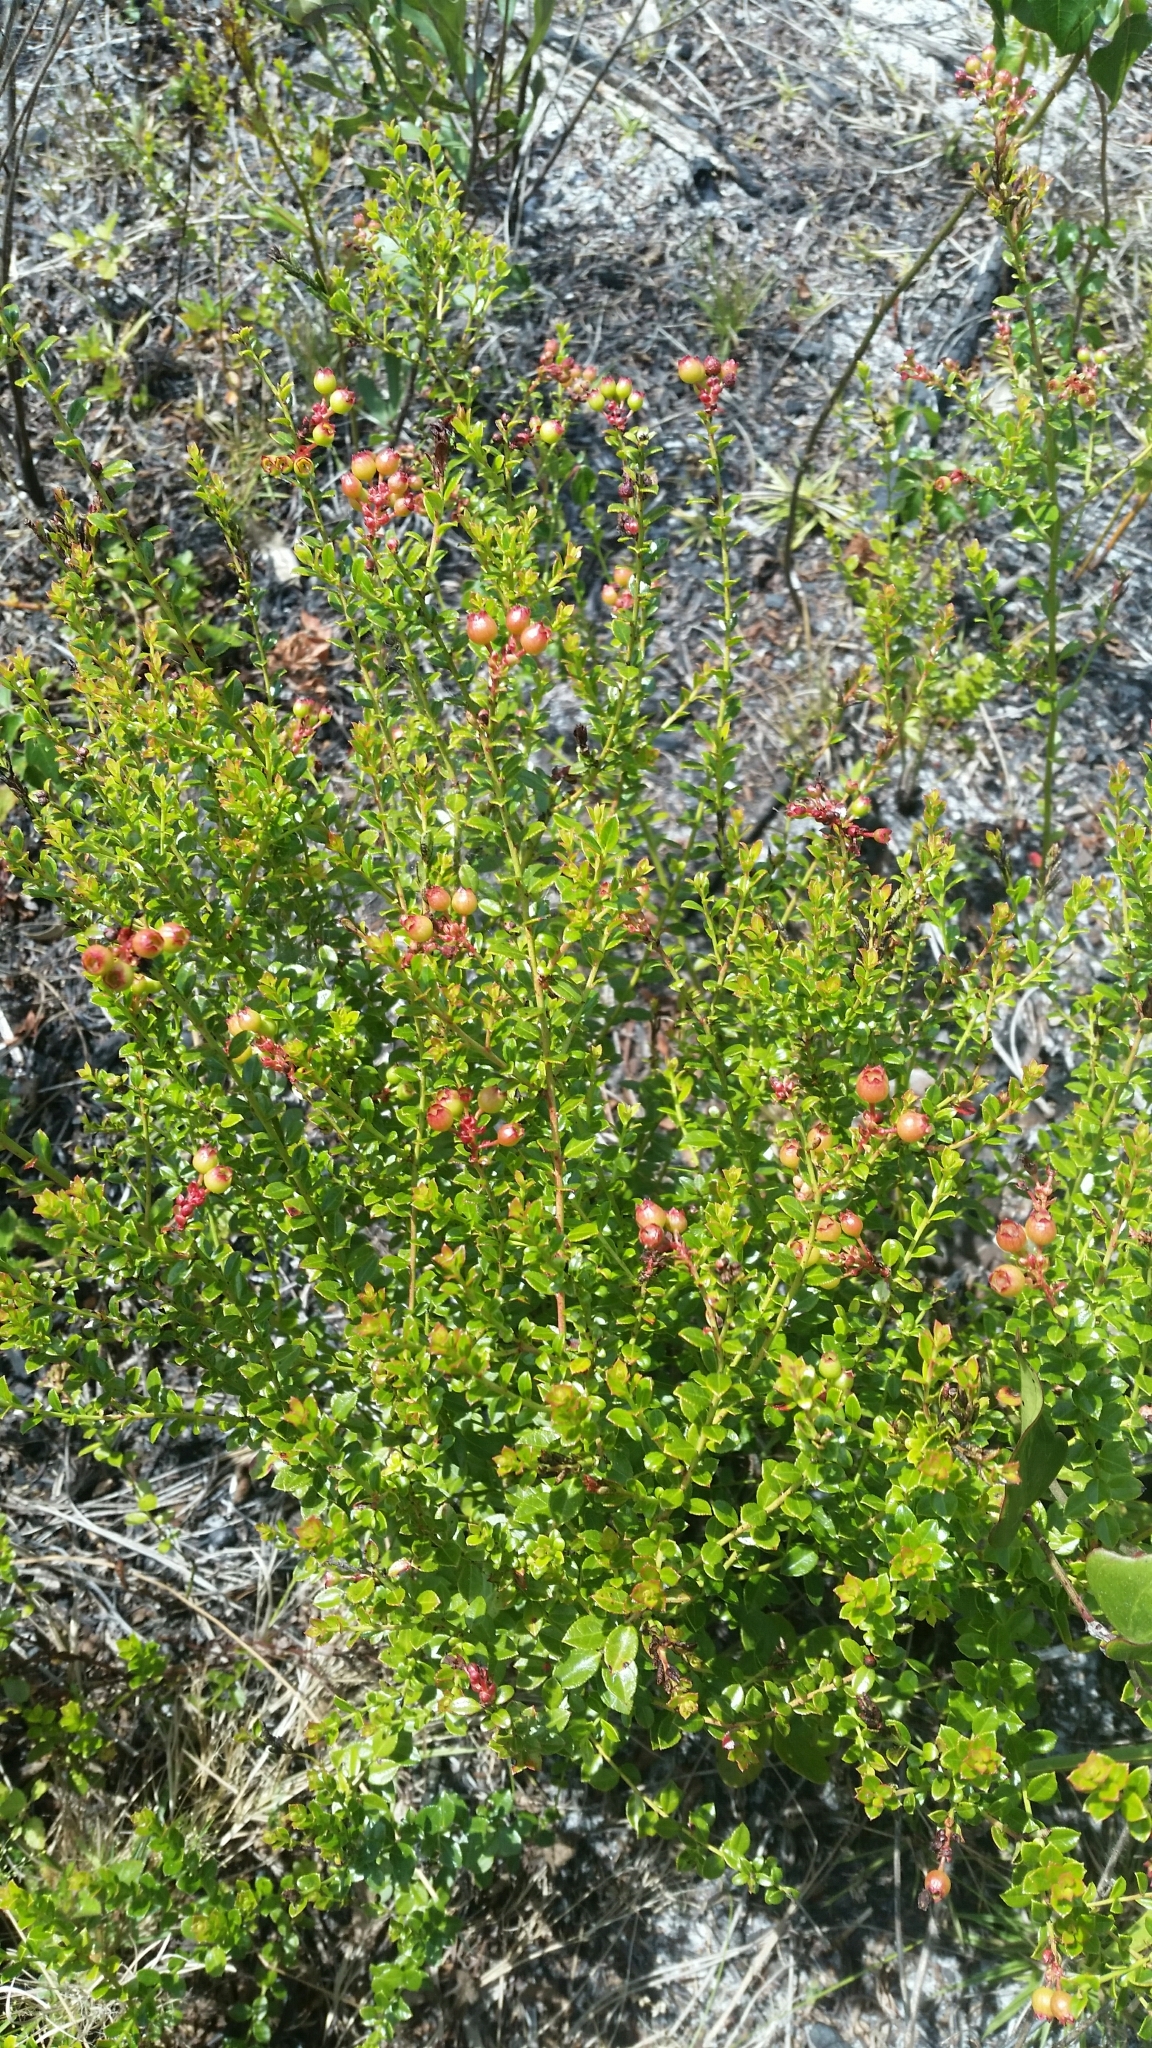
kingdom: Plantae
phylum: Tracheophyta
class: Magnoliopsida
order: Ericales
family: Ericaceae
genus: Vaccinium
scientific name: Vaccinium myrsinites
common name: Evergreen blueberry
